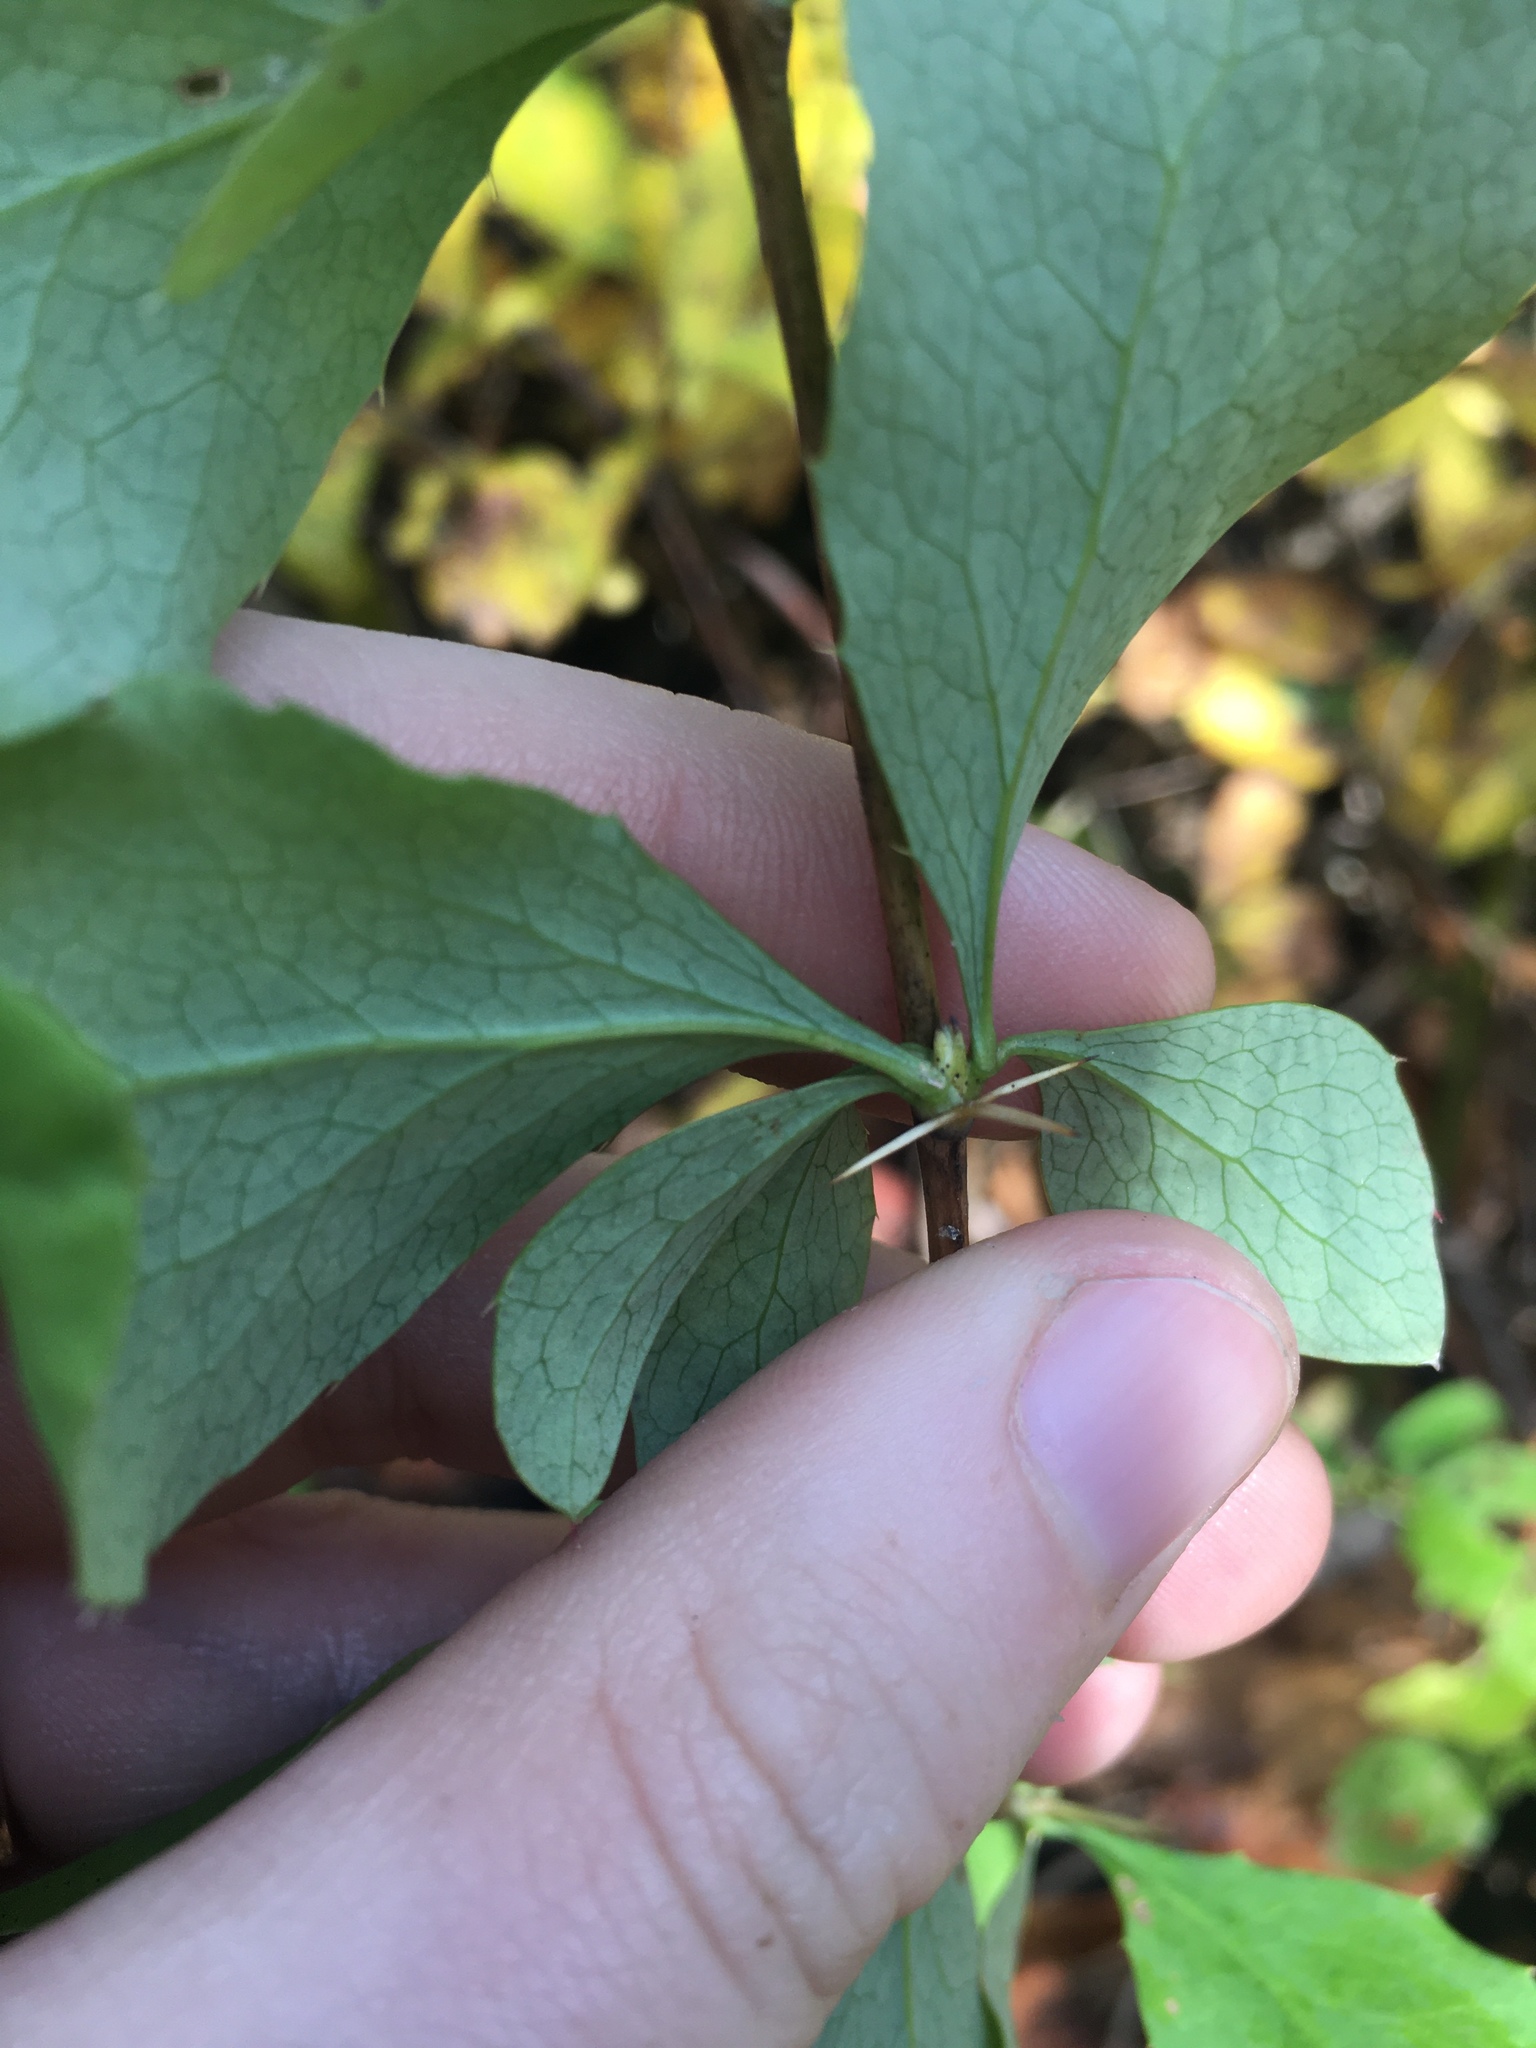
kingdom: Plantae
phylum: Tracheophyta
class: Magnoliopsida
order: Ranunculales
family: Berberidaceae
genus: Berberis
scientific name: Berberis vulgaris
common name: Barberry
